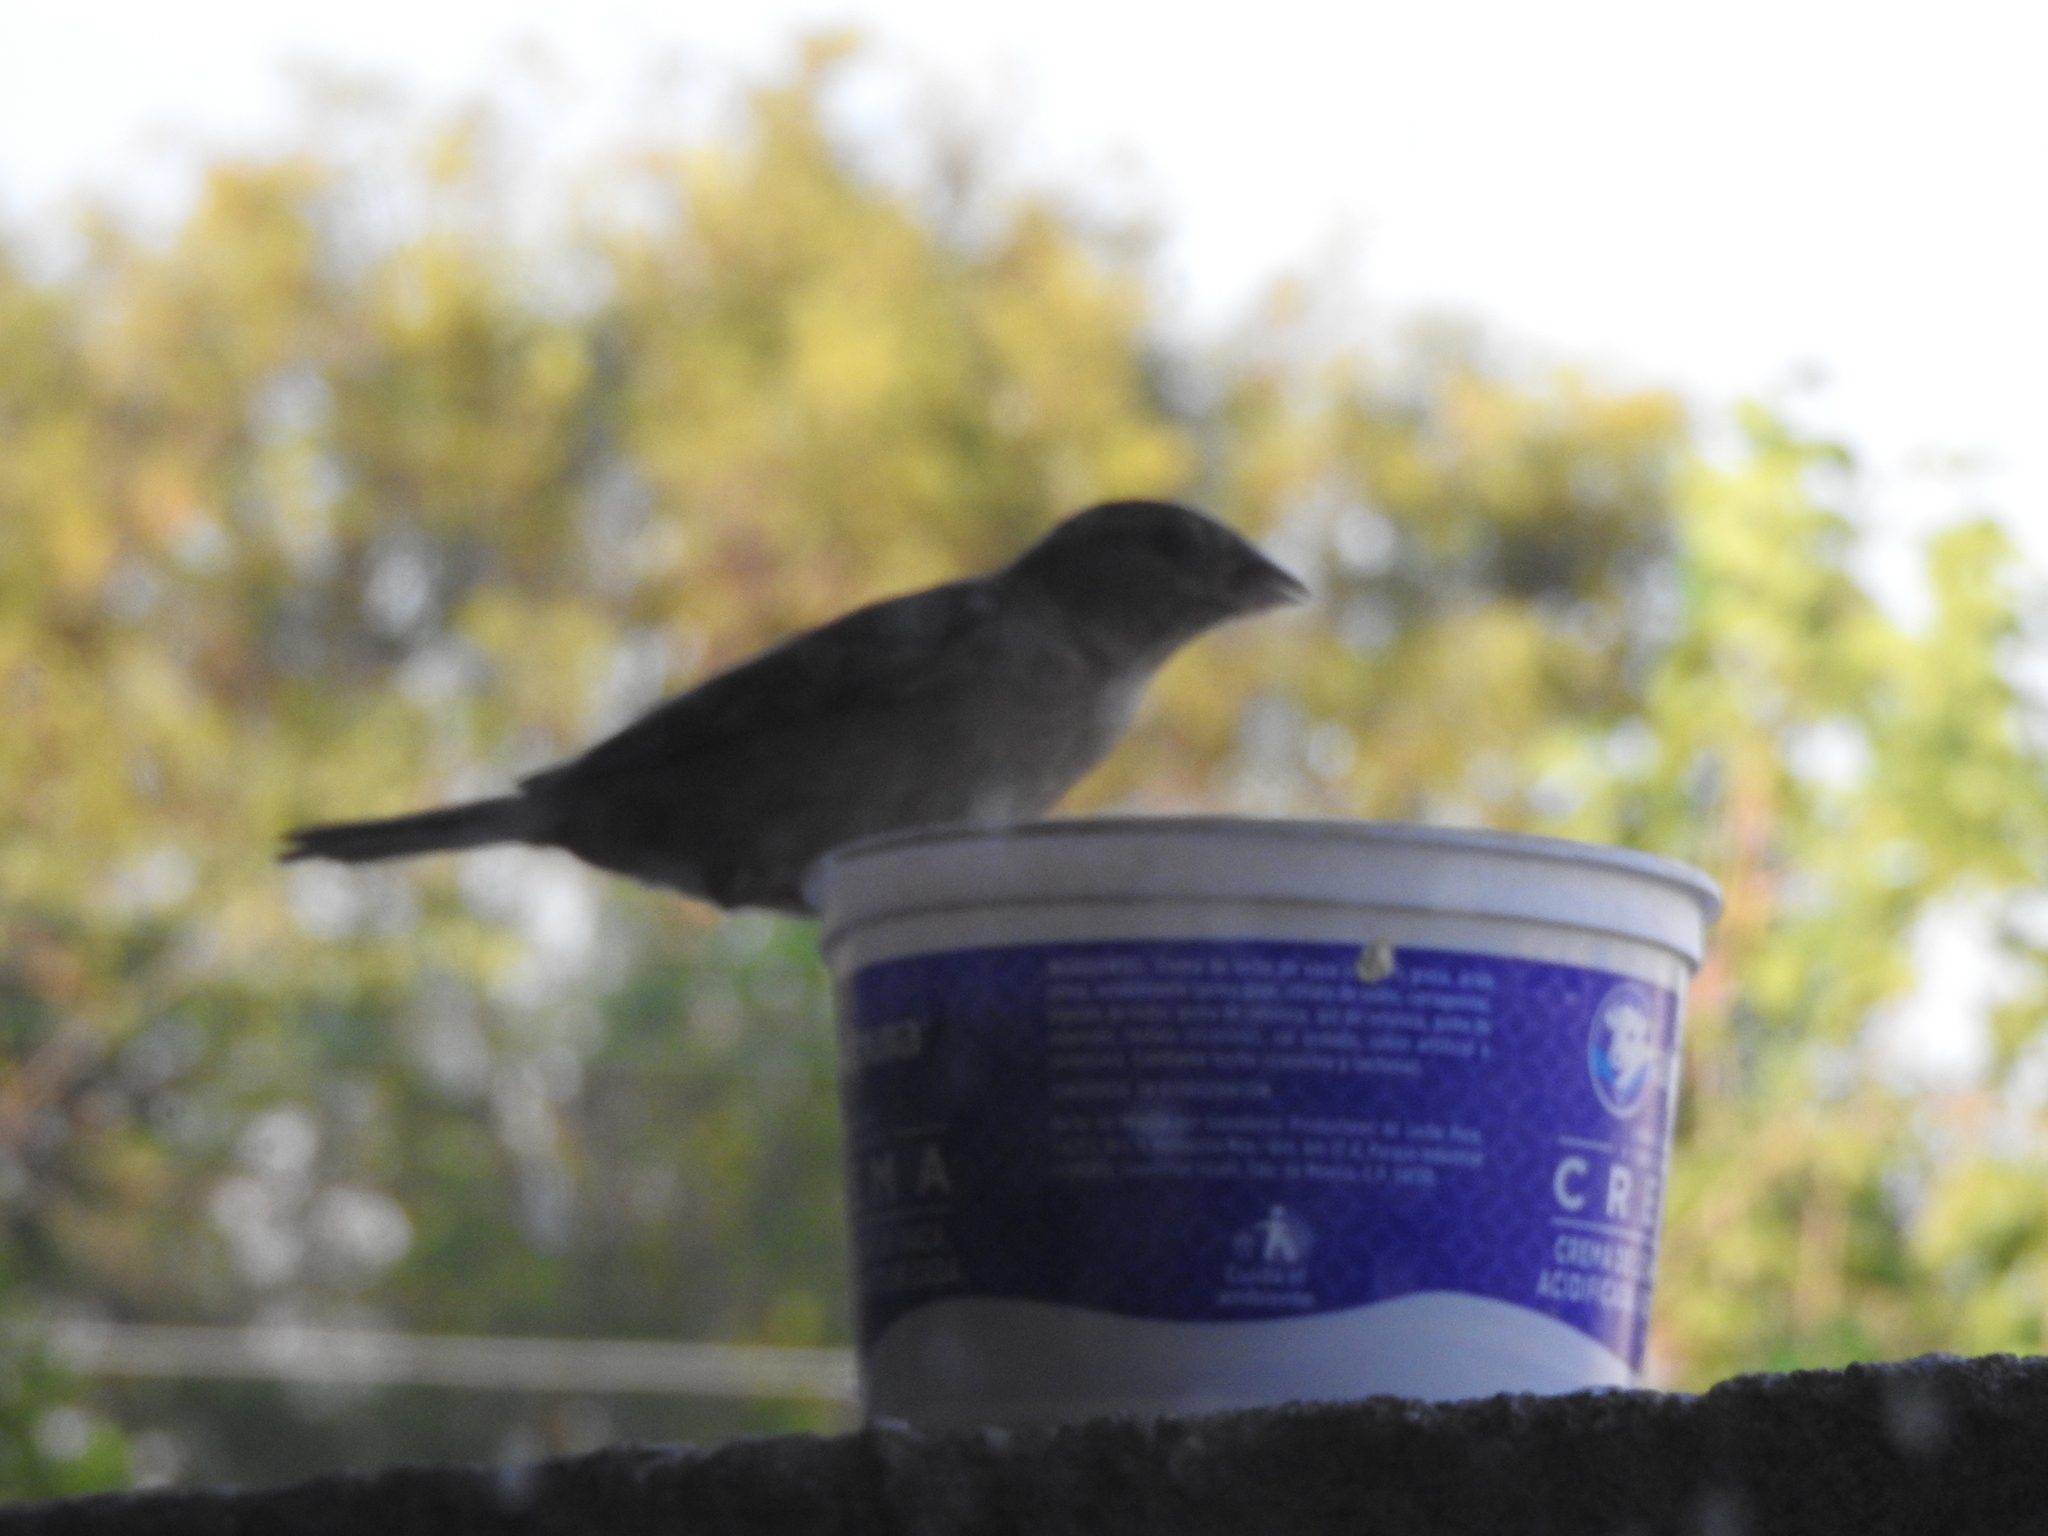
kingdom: Animalia
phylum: Chordata
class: Aves
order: Passeriformes
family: Passeridae
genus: Passer
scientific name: Passer domesticus
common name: House sparrow
